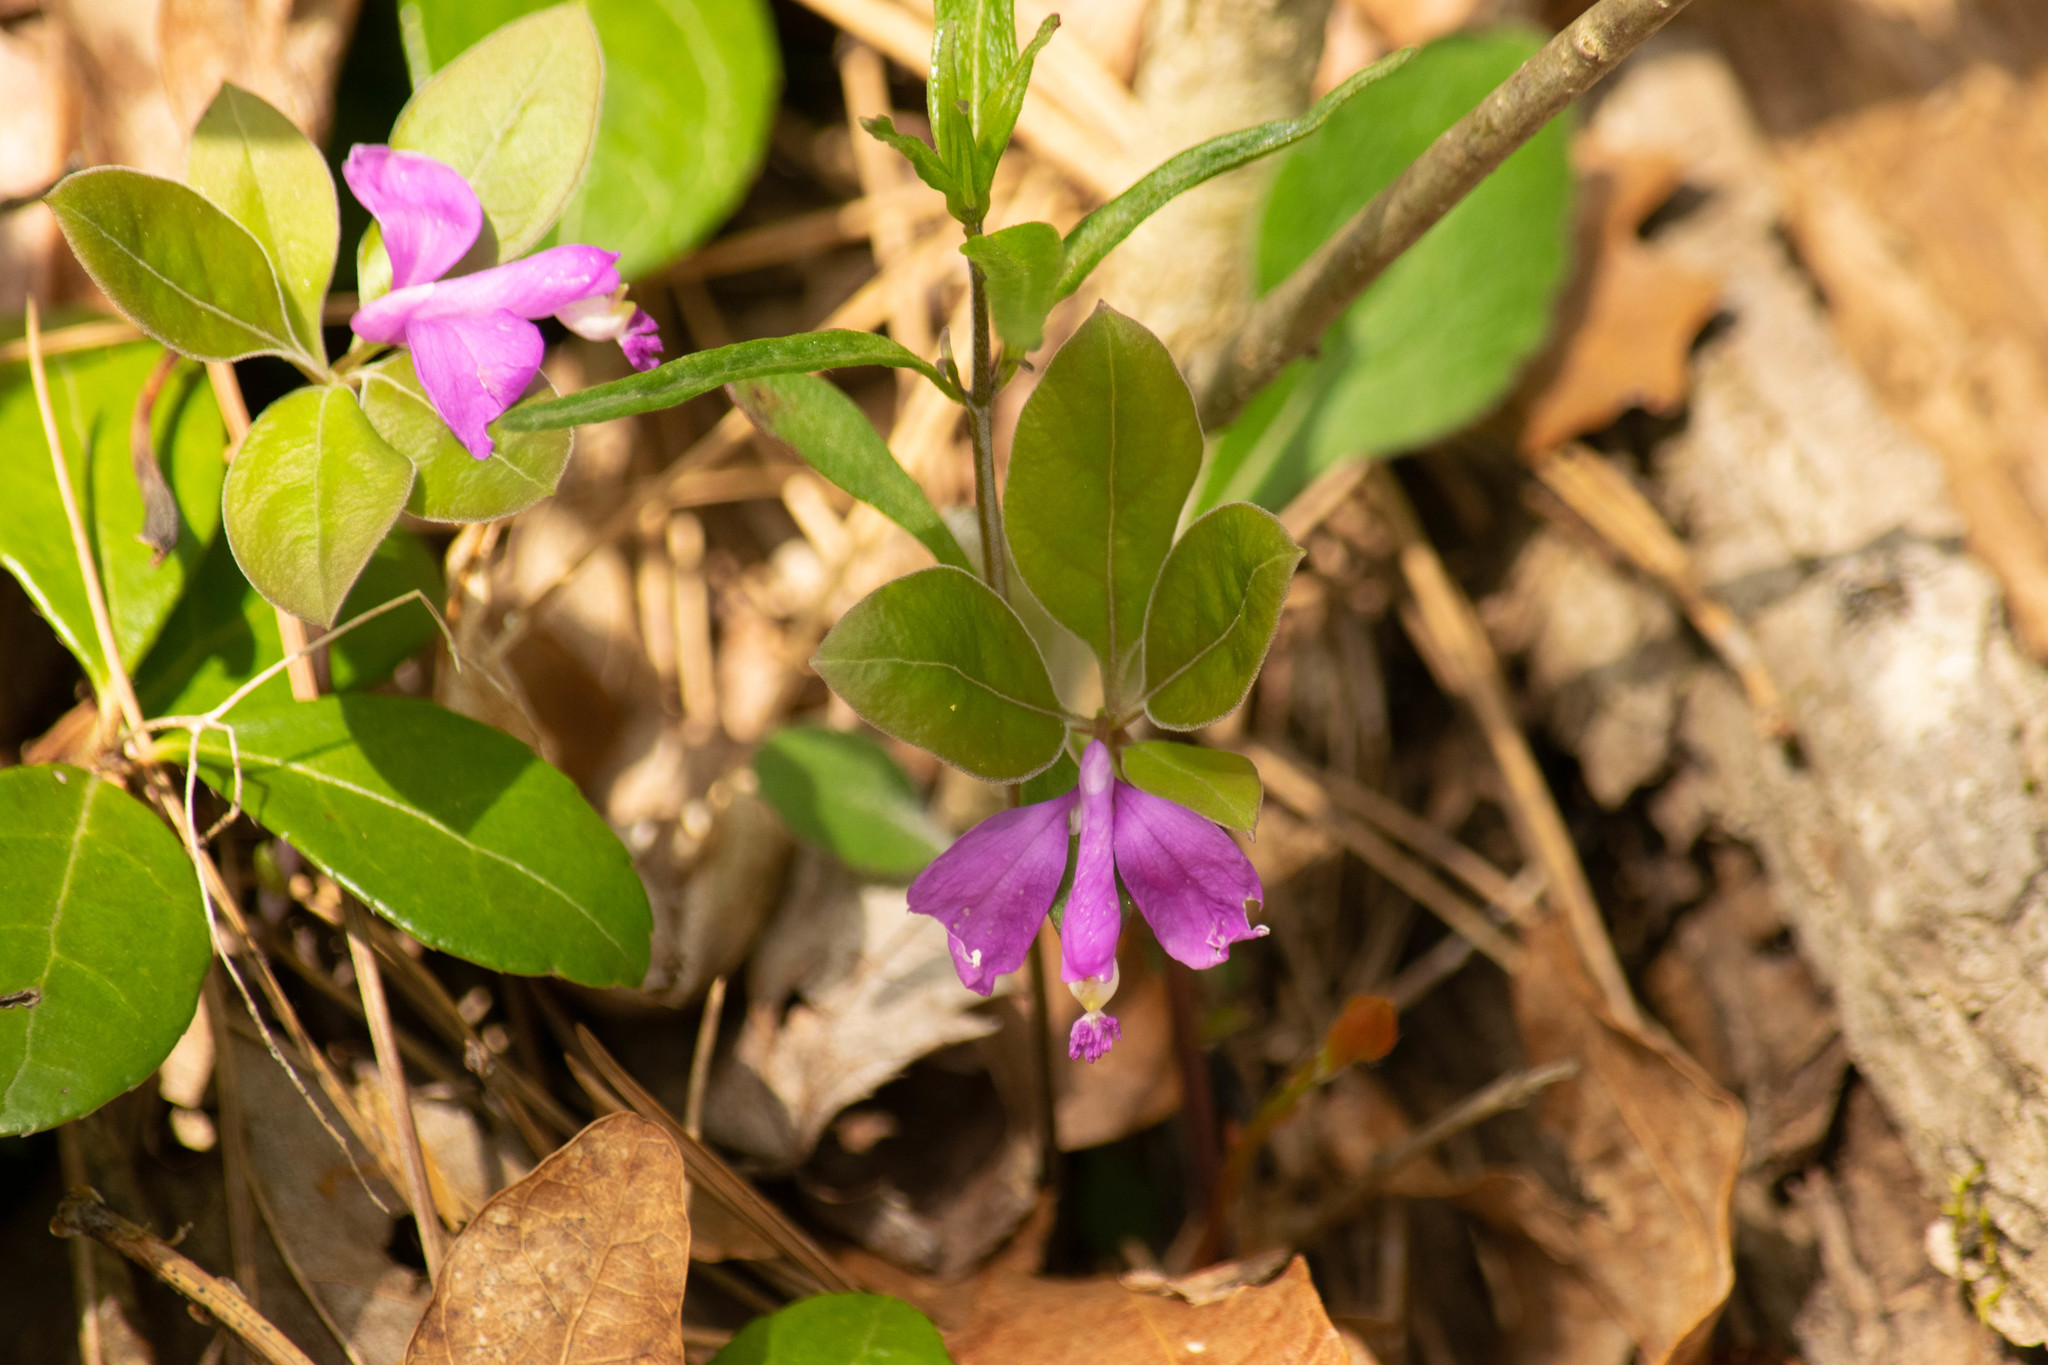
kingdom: Plantae
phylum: Tracheophyta
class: Magnoliopsida
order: Fabales
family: Polygalaceae
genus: Polygaloides
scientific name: Polygaloides paucifolia
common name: Bird-on-the-wing
